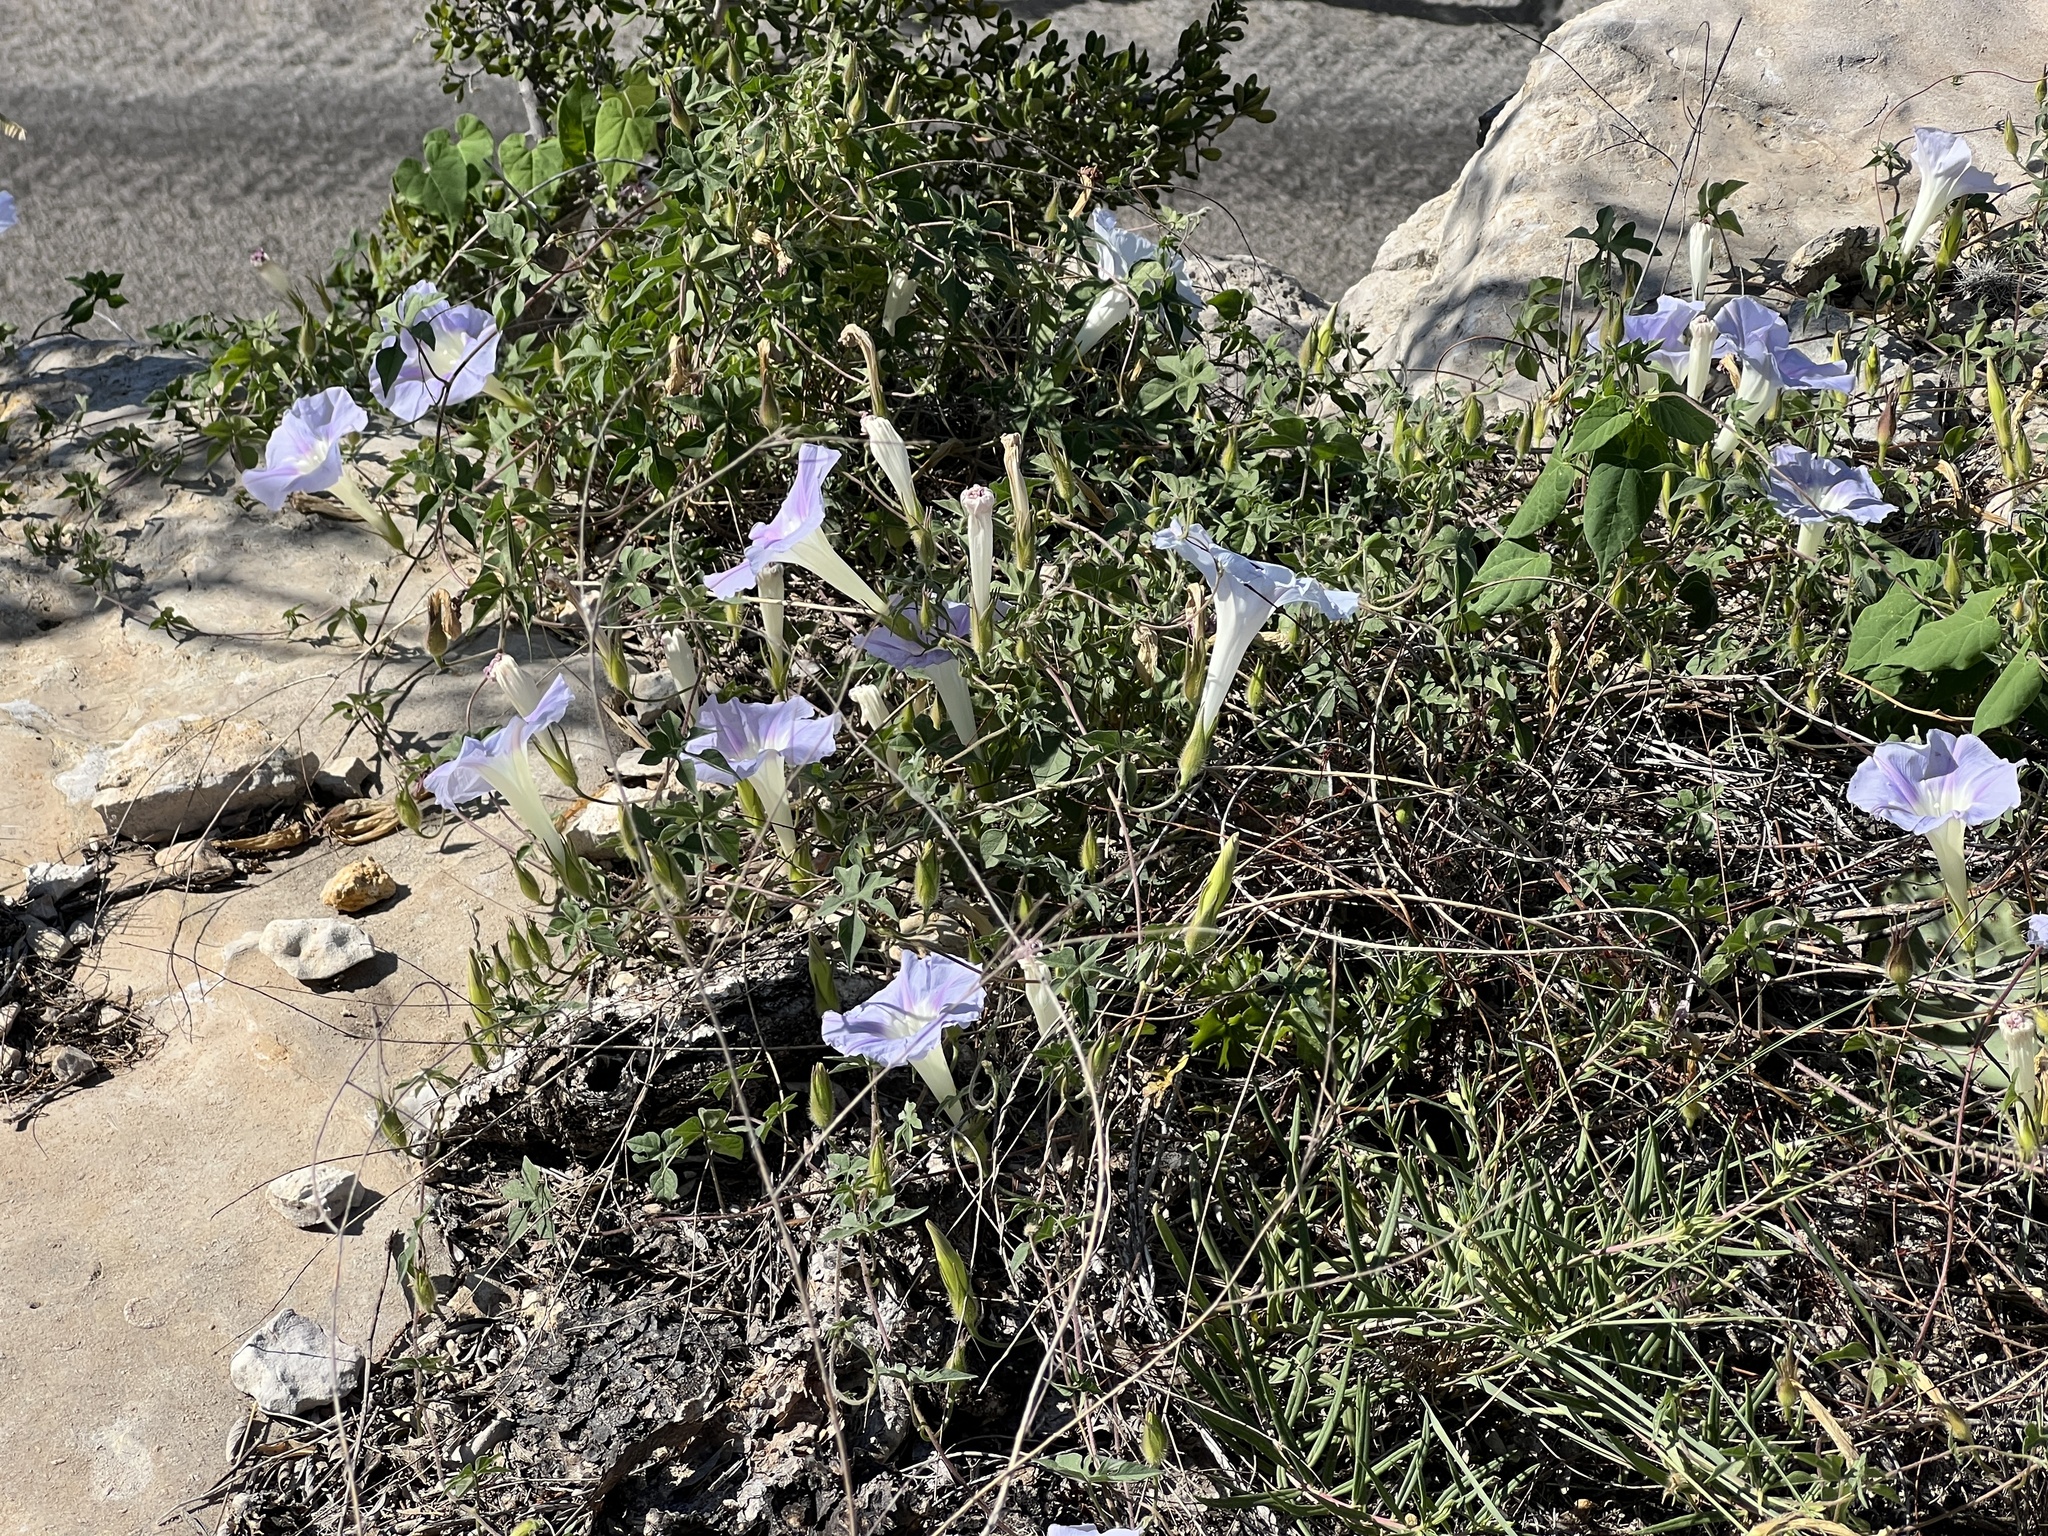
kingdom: Plantae
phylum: Tracheophyta
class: Magnoliopsida
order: Solanales
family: Convolvulaceae
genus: Ipomoea
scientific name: Ipomoea lindheimeri
